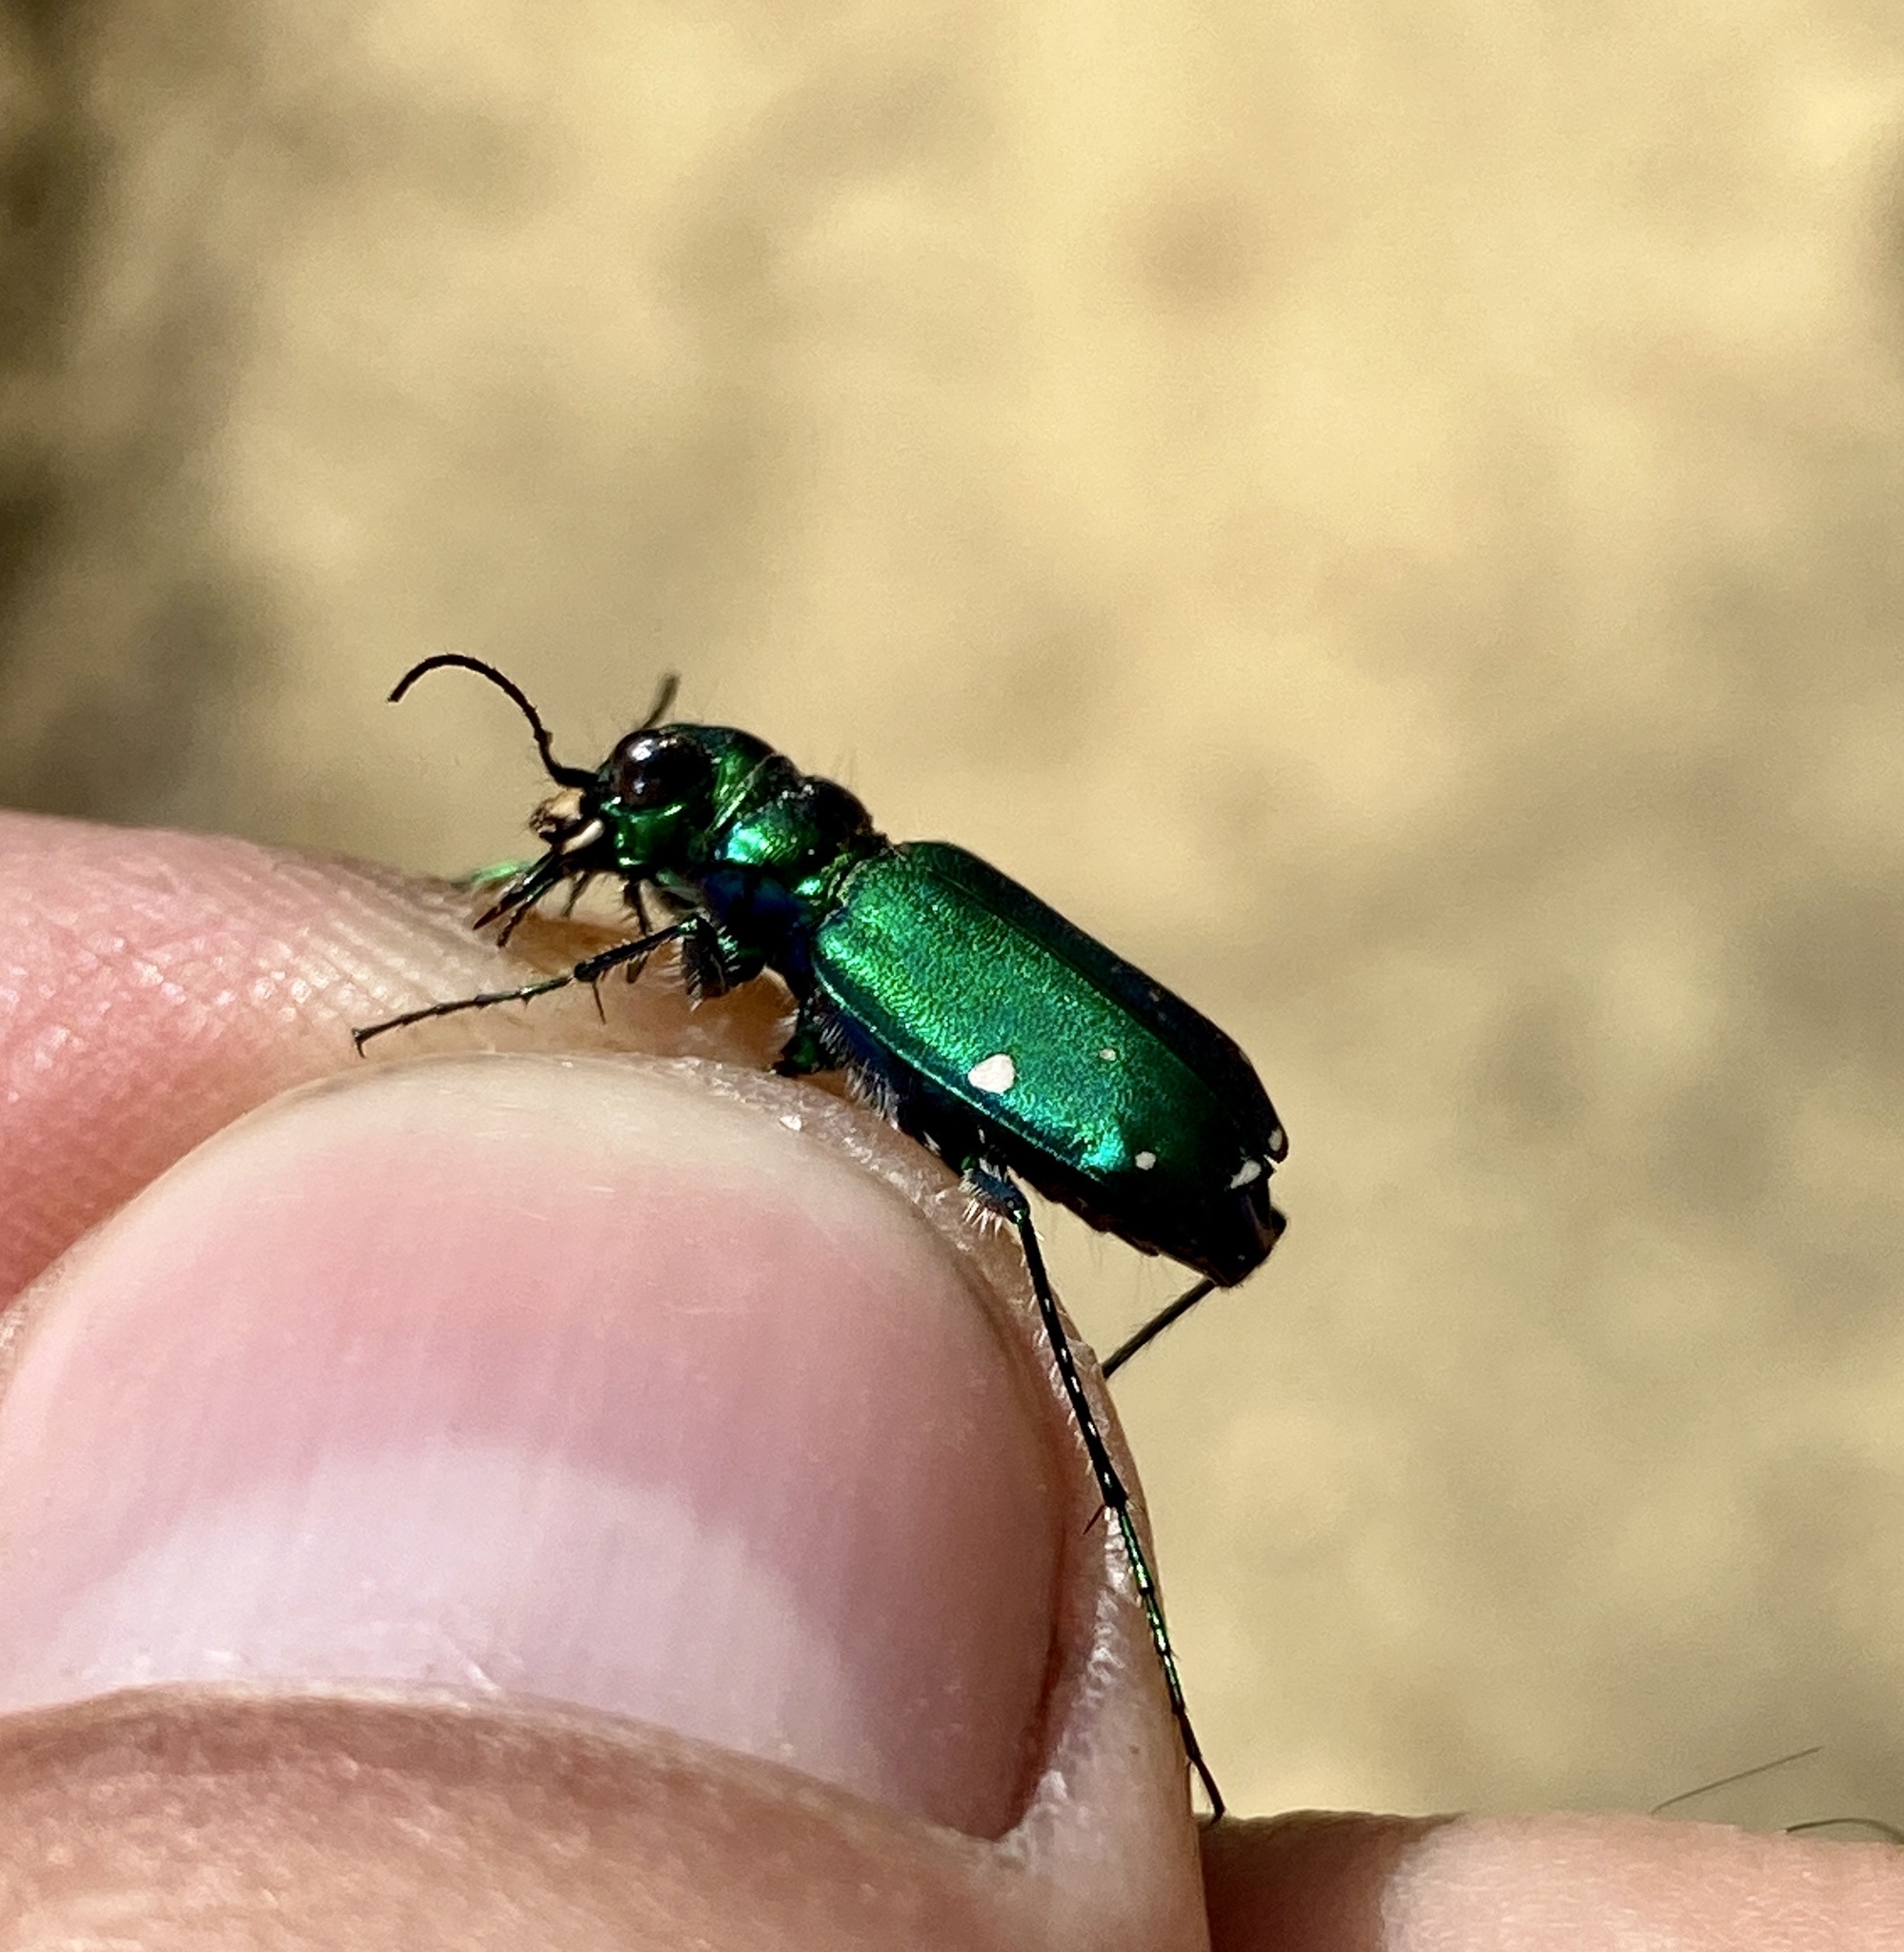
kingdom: Animalia
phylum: Arthropoda
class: Insecta
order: Coleoptera
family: Carabidae
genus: Cicindela
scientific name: Cicindela sexguttata
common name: Six-spotted tiger beetle
